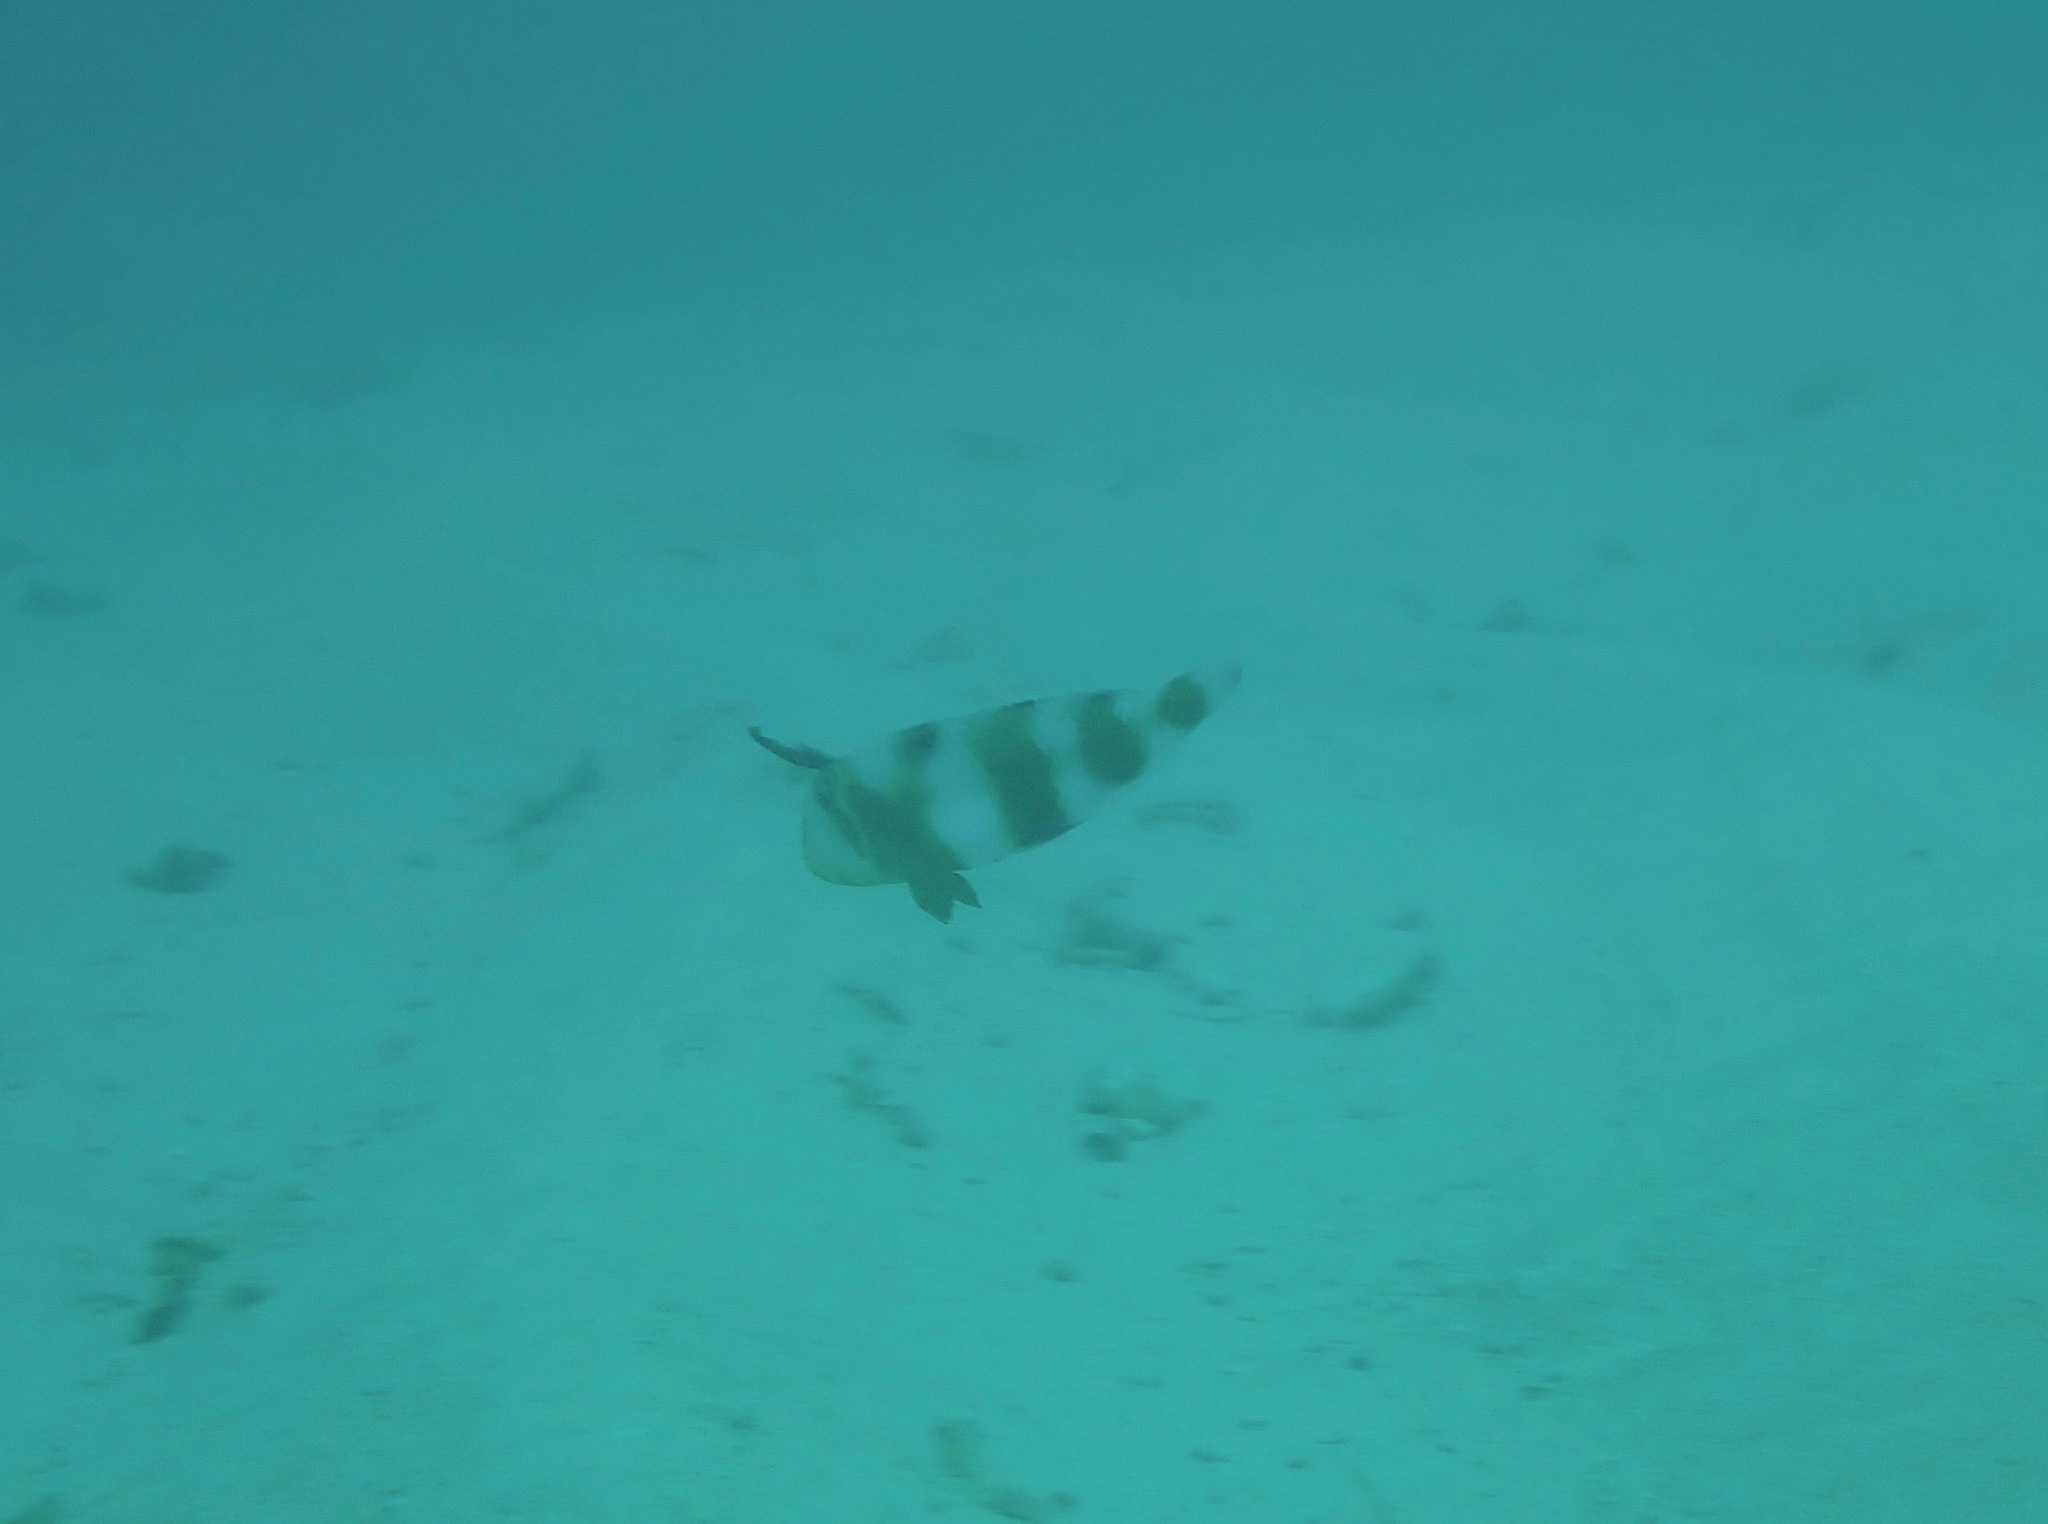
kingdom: Animalia
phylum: Chordata
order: Perciformes
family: Labridae
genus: Iniistius
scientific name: Iniistius pavo
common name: Peacock wrasse
